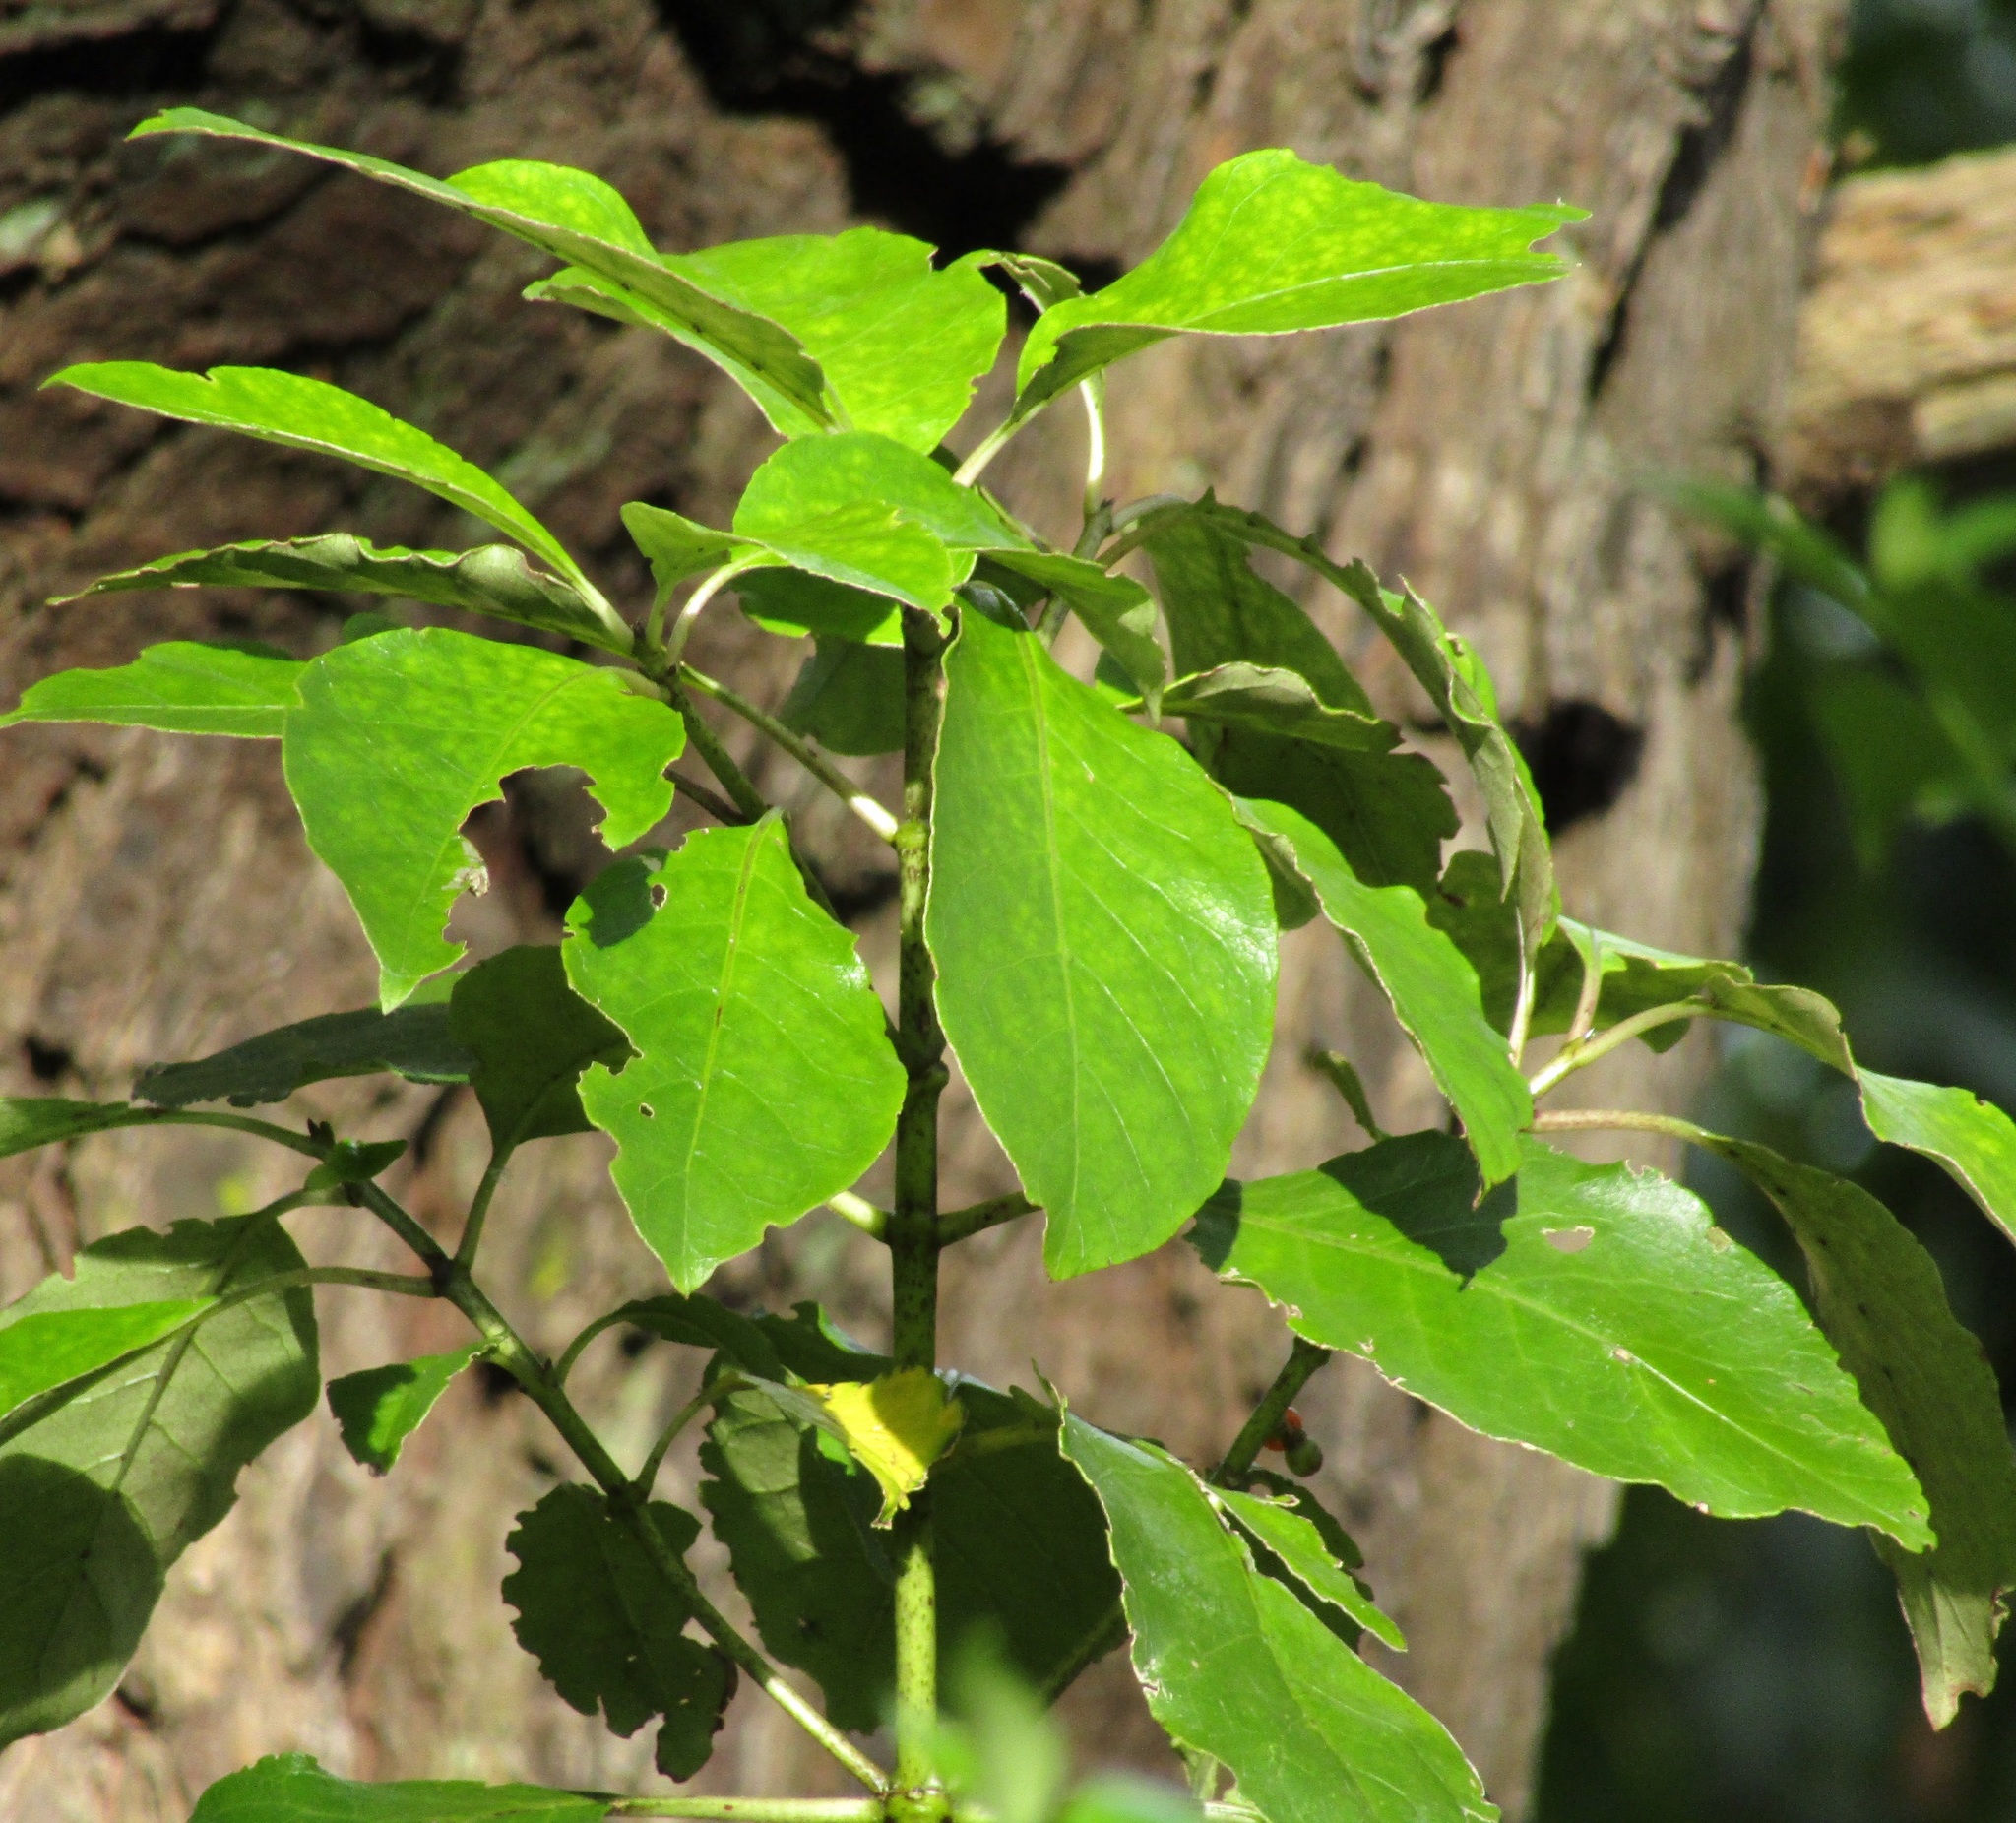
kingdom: Plantae
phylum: Tracheophyta
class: Magnoliopsida
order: Gentianales
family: Rubiaceae
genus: Coprosma
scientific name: Coprosma autumnalis
